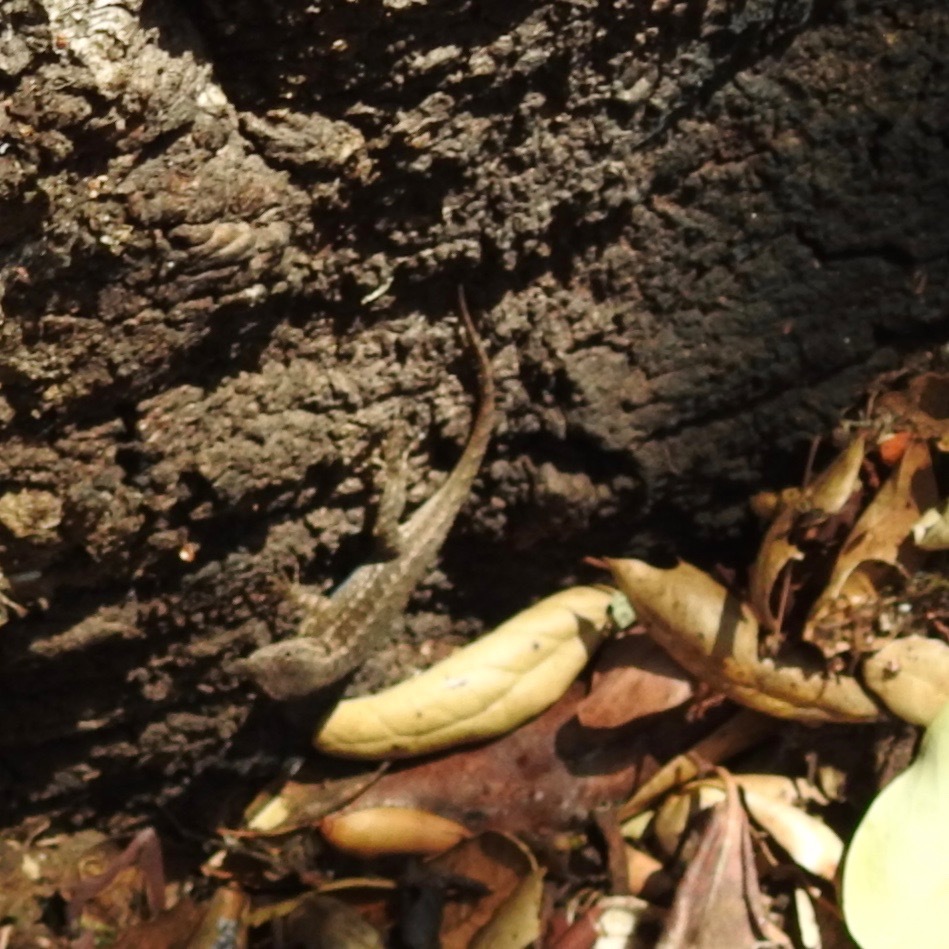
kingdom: Animalia
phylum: Chordata
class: Squamata
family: Phrynosomatidae
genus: Sceloporus
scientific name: Sceloporus occidentalis
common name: Western fence lizard
